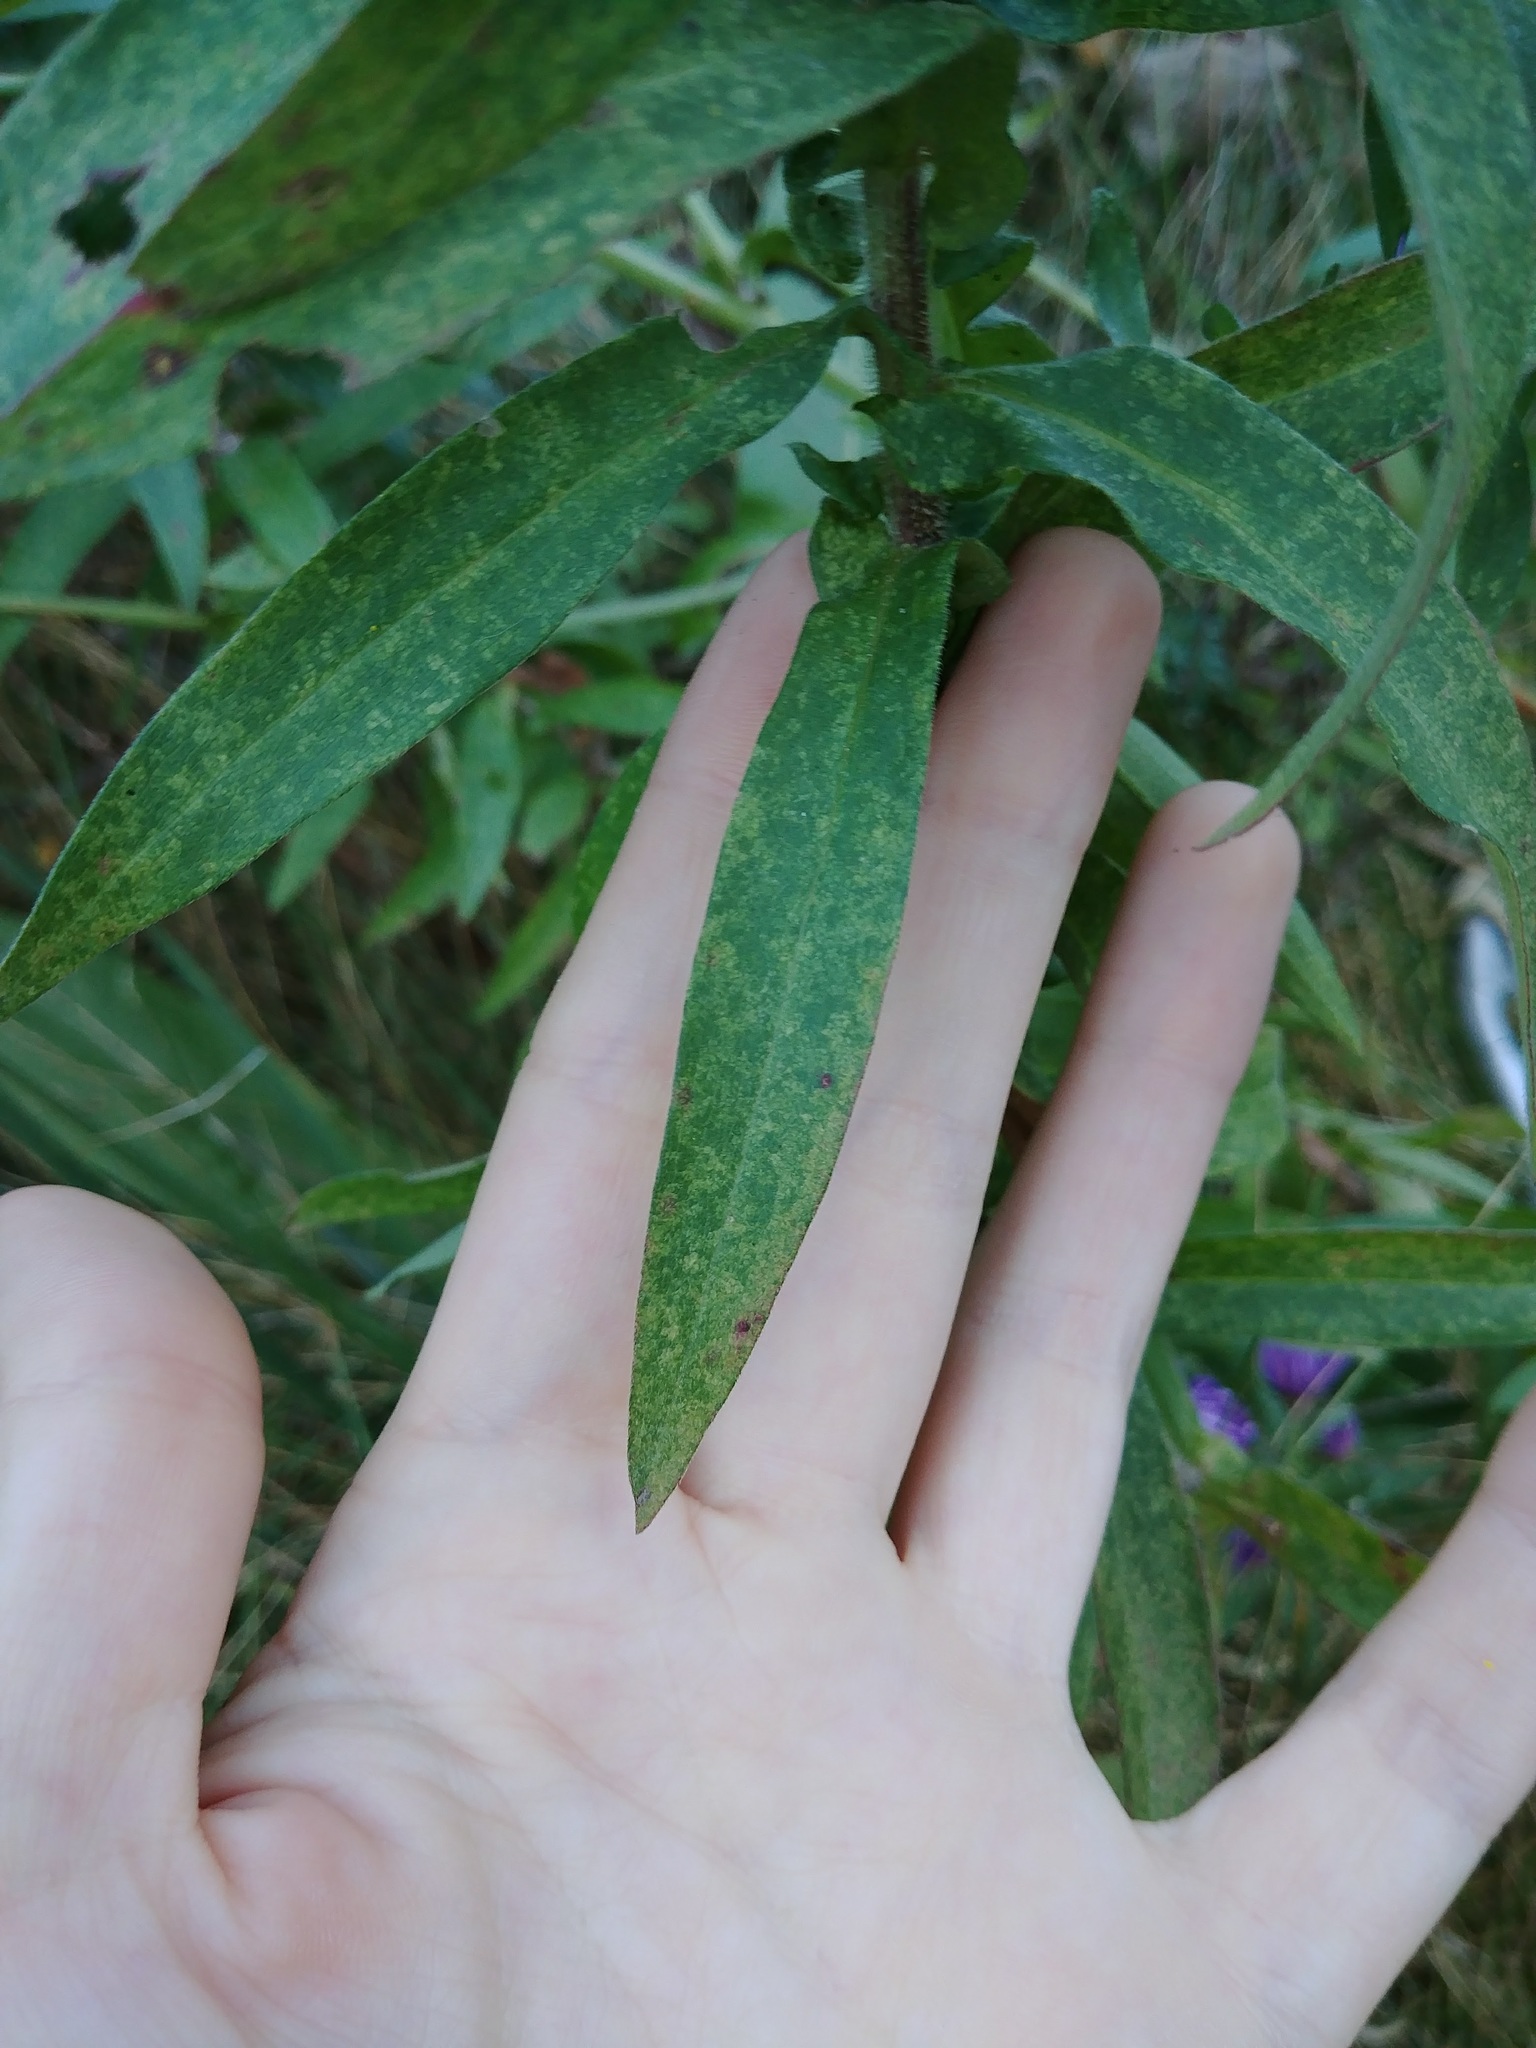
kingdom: Plantae
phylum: Tracheophyta
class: Magnoliopsida
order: Asterales
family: Asteraceae
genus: Symphyotrichum
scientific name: Symphyotrichum novae-angliae
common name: Michaelmas daisy
